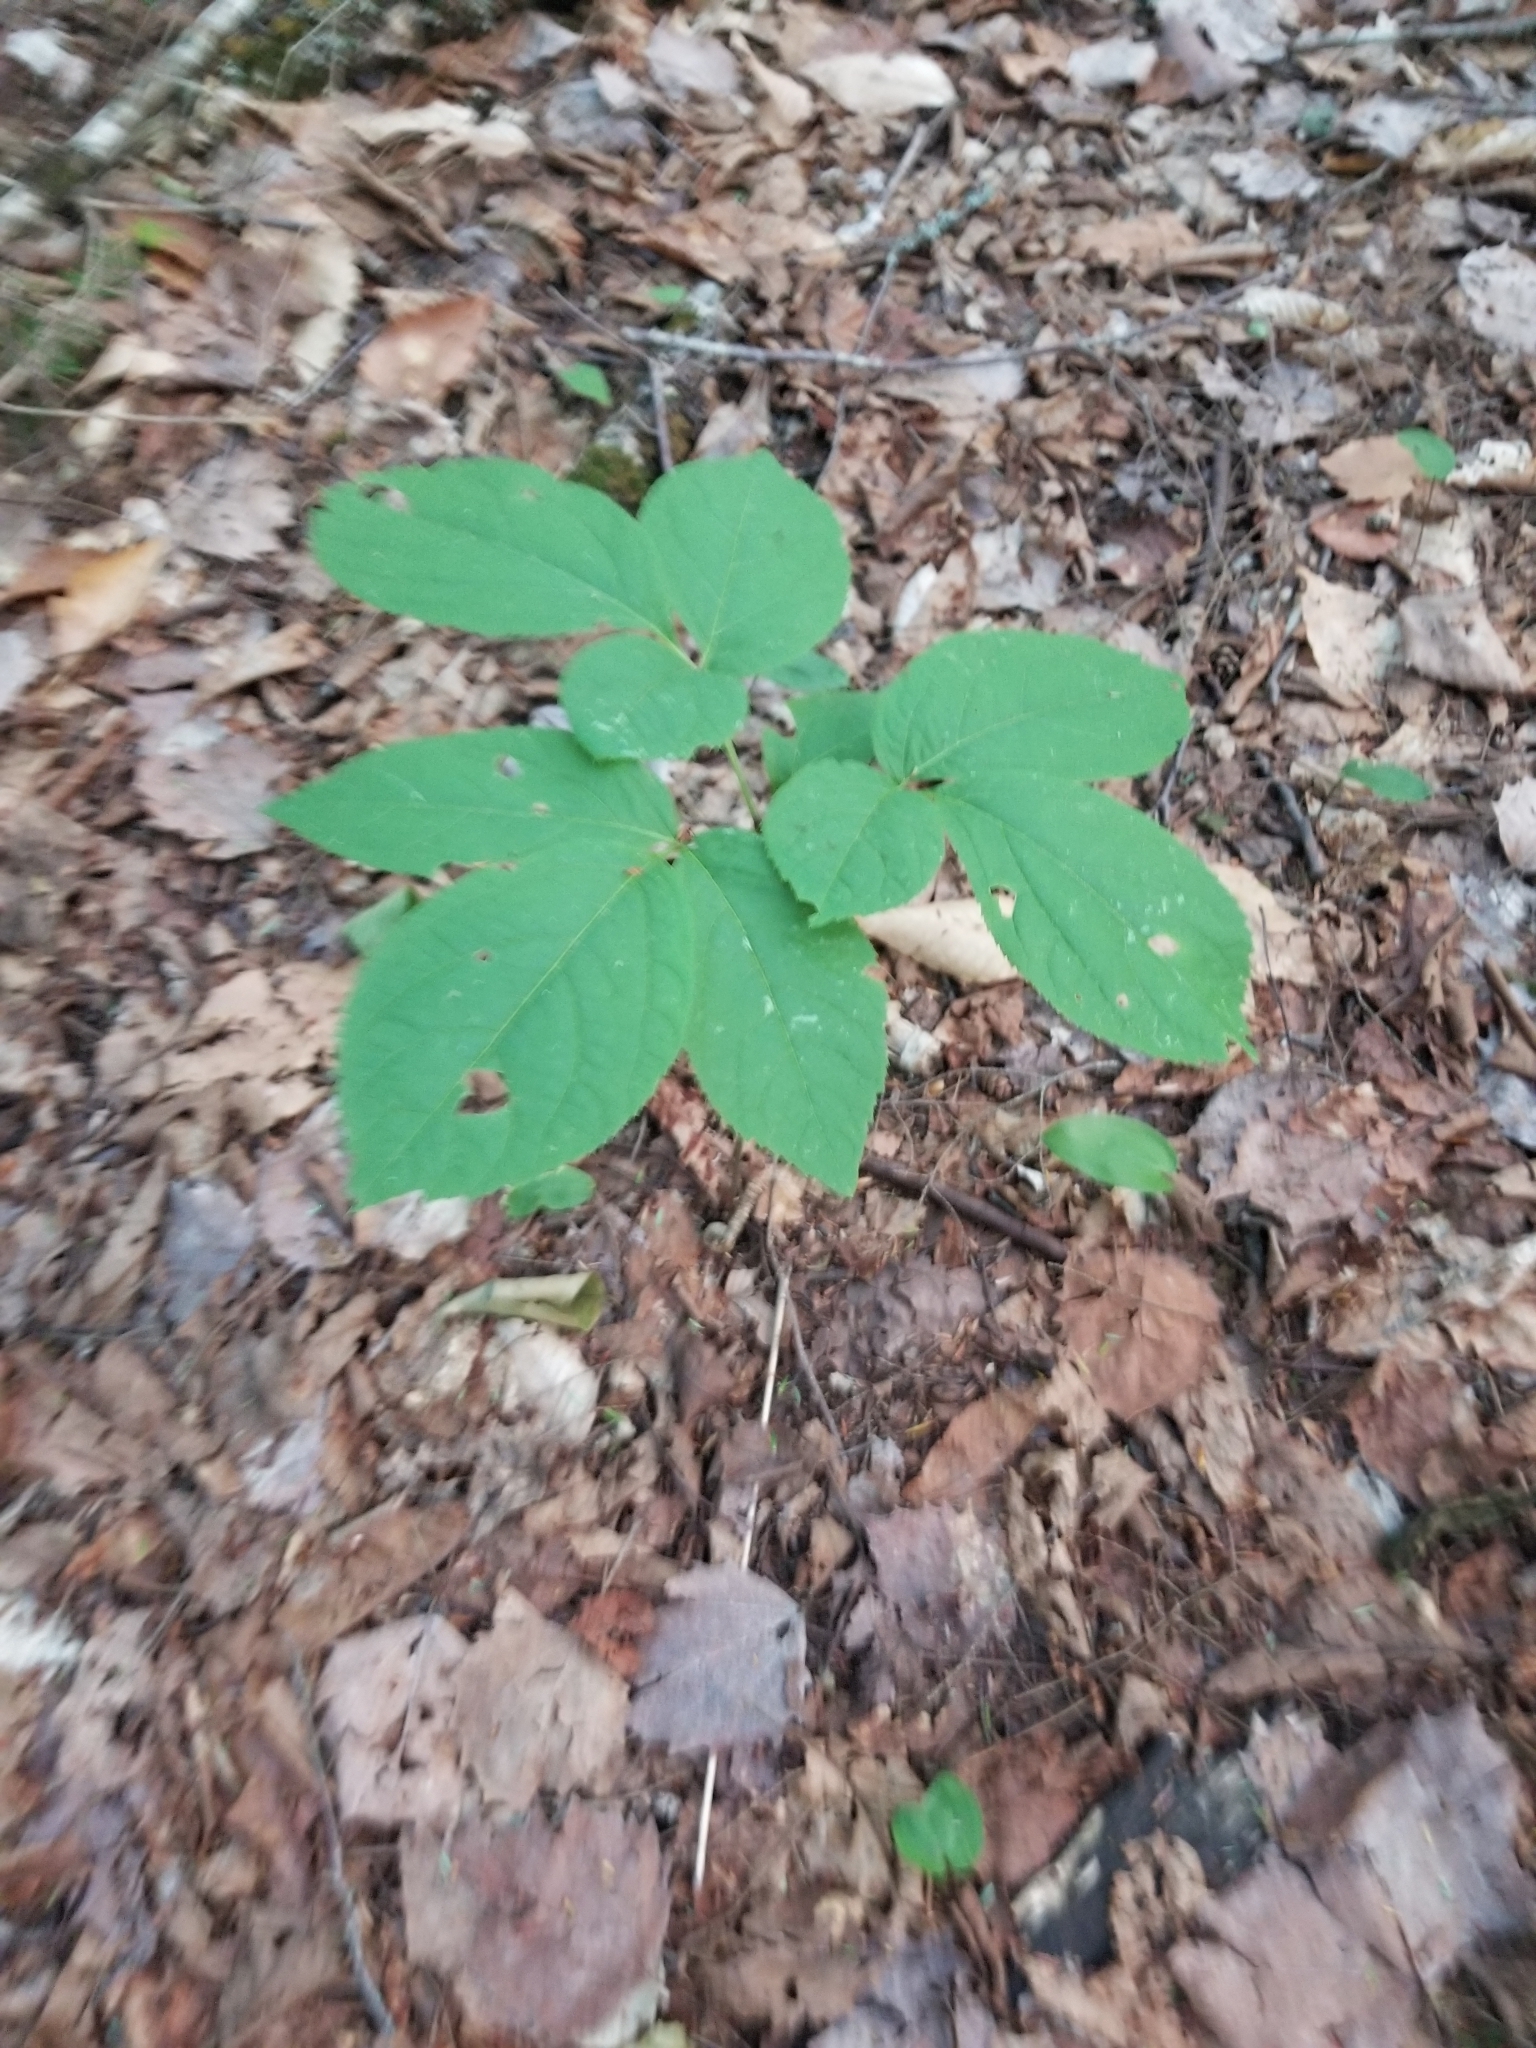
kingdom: Plantae
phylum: Tracheophyta
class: Magnoliopsida
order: Apiales
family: Araliaceae
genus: Aralia
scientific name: Aralia nudicaulis
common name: Wild sarsaparilla
